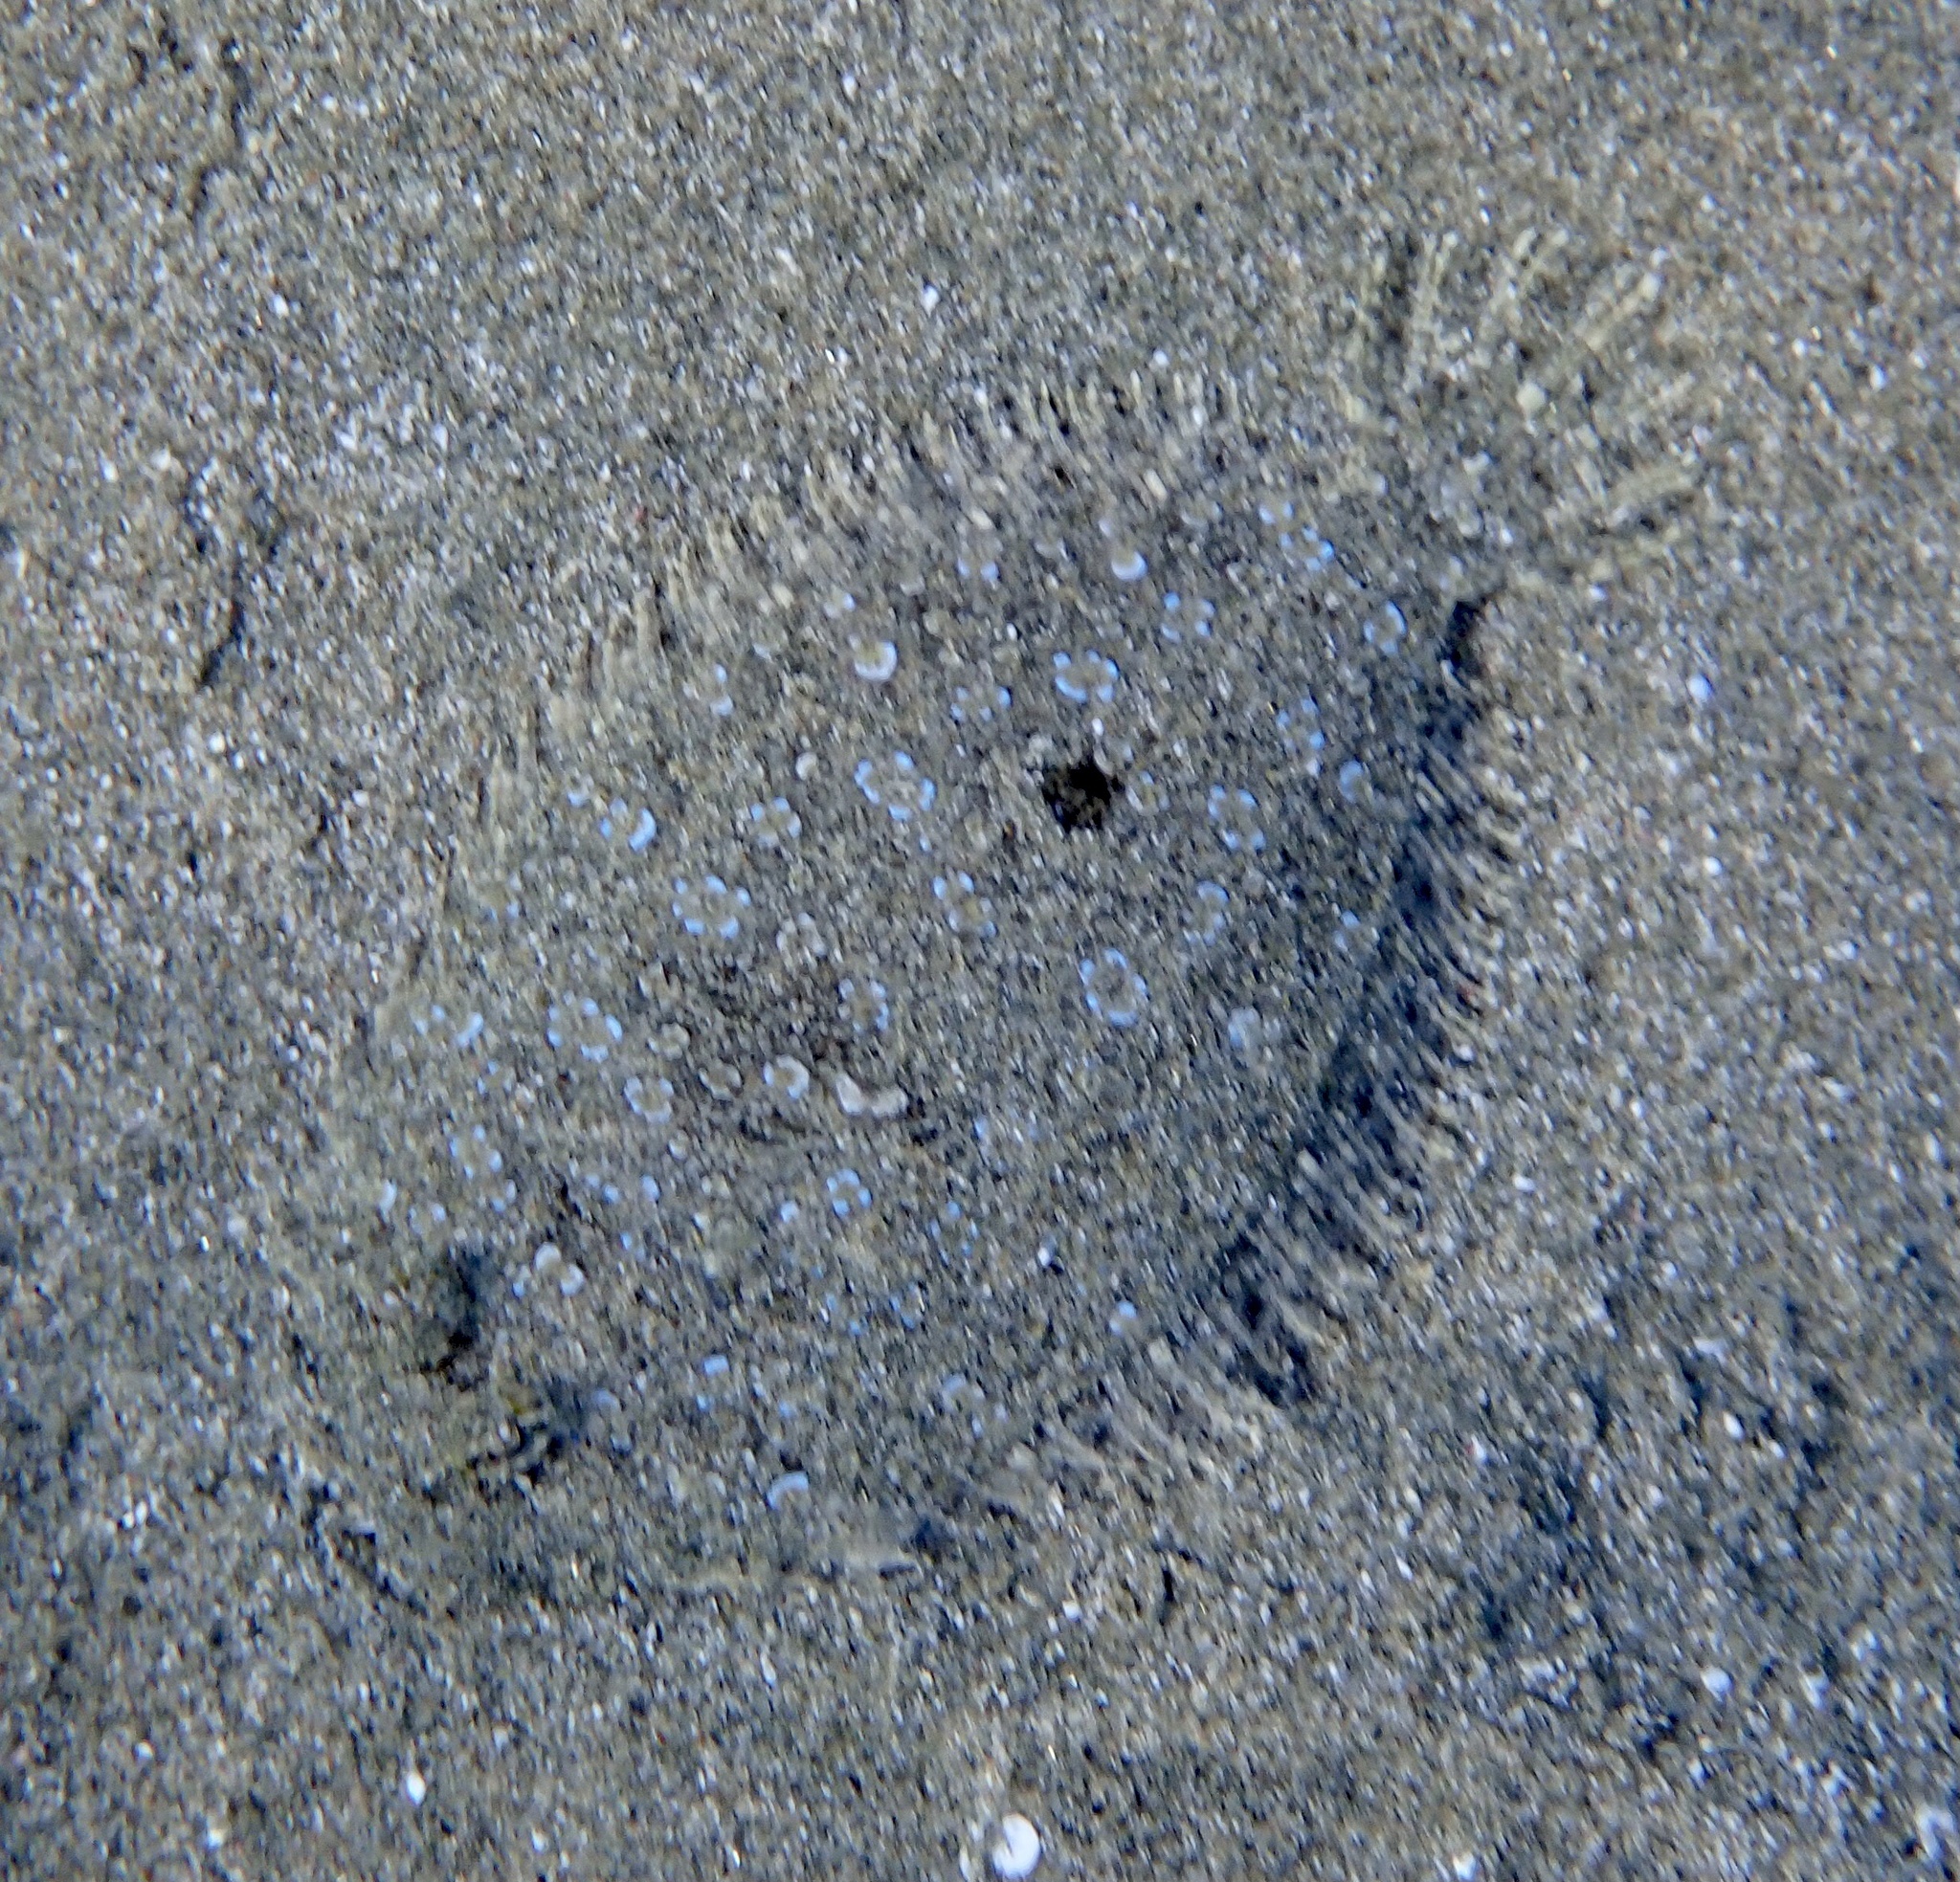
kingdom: Animalia
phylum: Chordata
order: Pleuronectiformes
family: Bothidae
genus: Bothus
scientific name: Bothus pantherinus
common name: Leopard flounder
